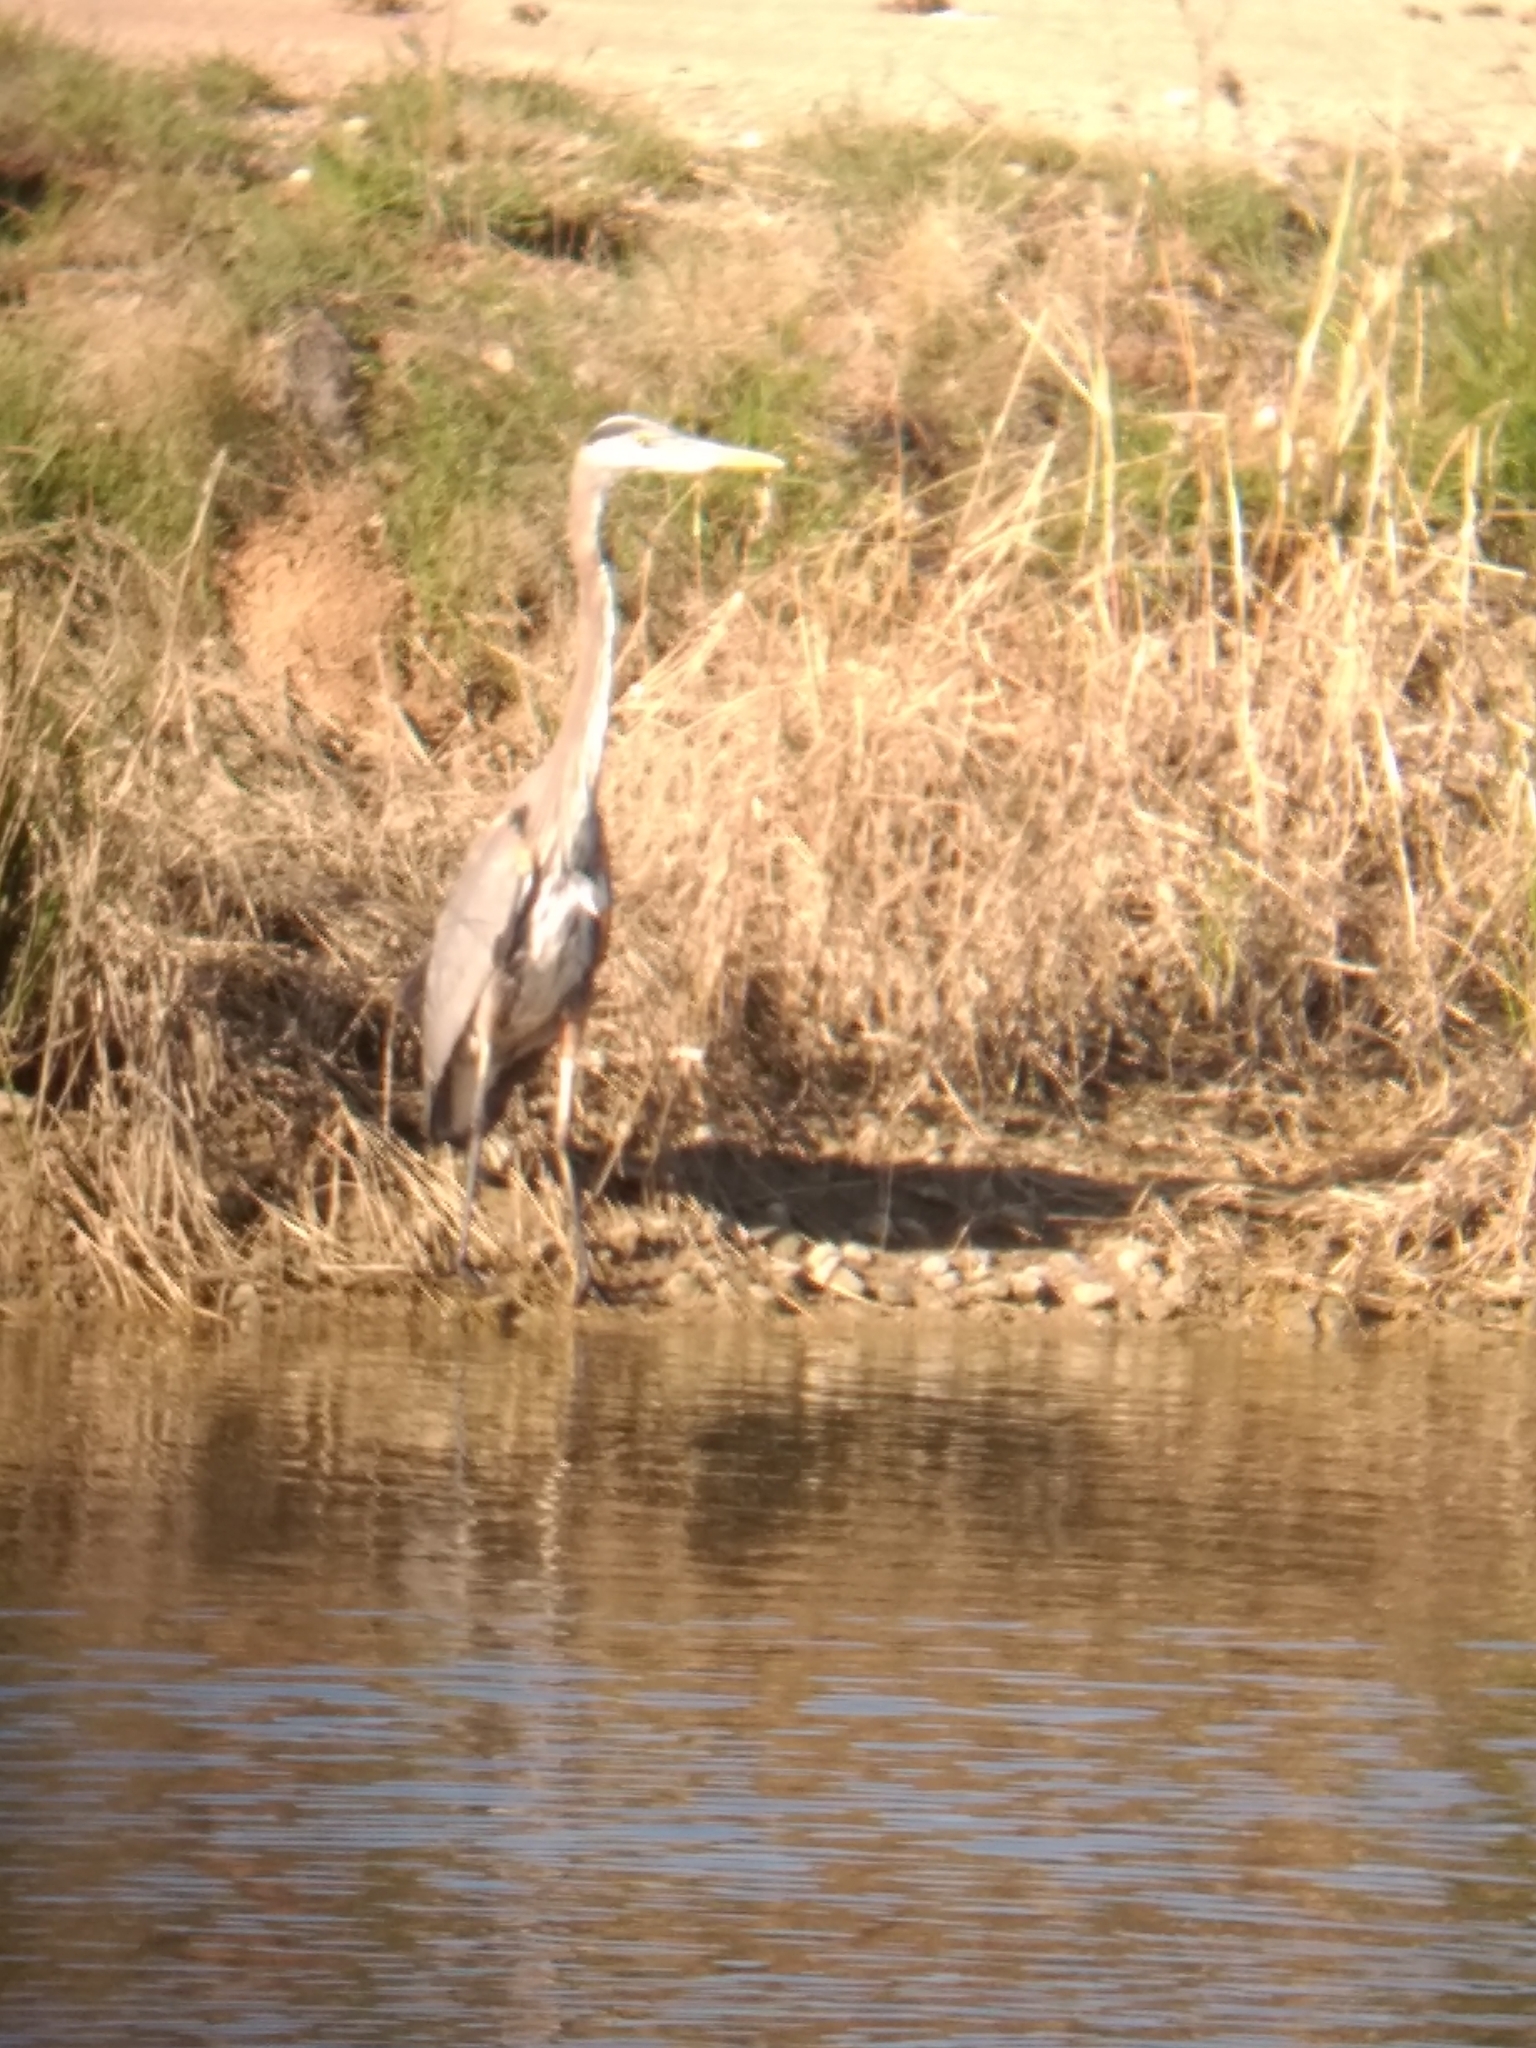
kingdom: Animalia
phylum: Chordata
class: Aves
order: Pelecaniformes
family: Ardeidae
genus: Ardea
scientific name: Ardea herodias
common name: Great blue heron
